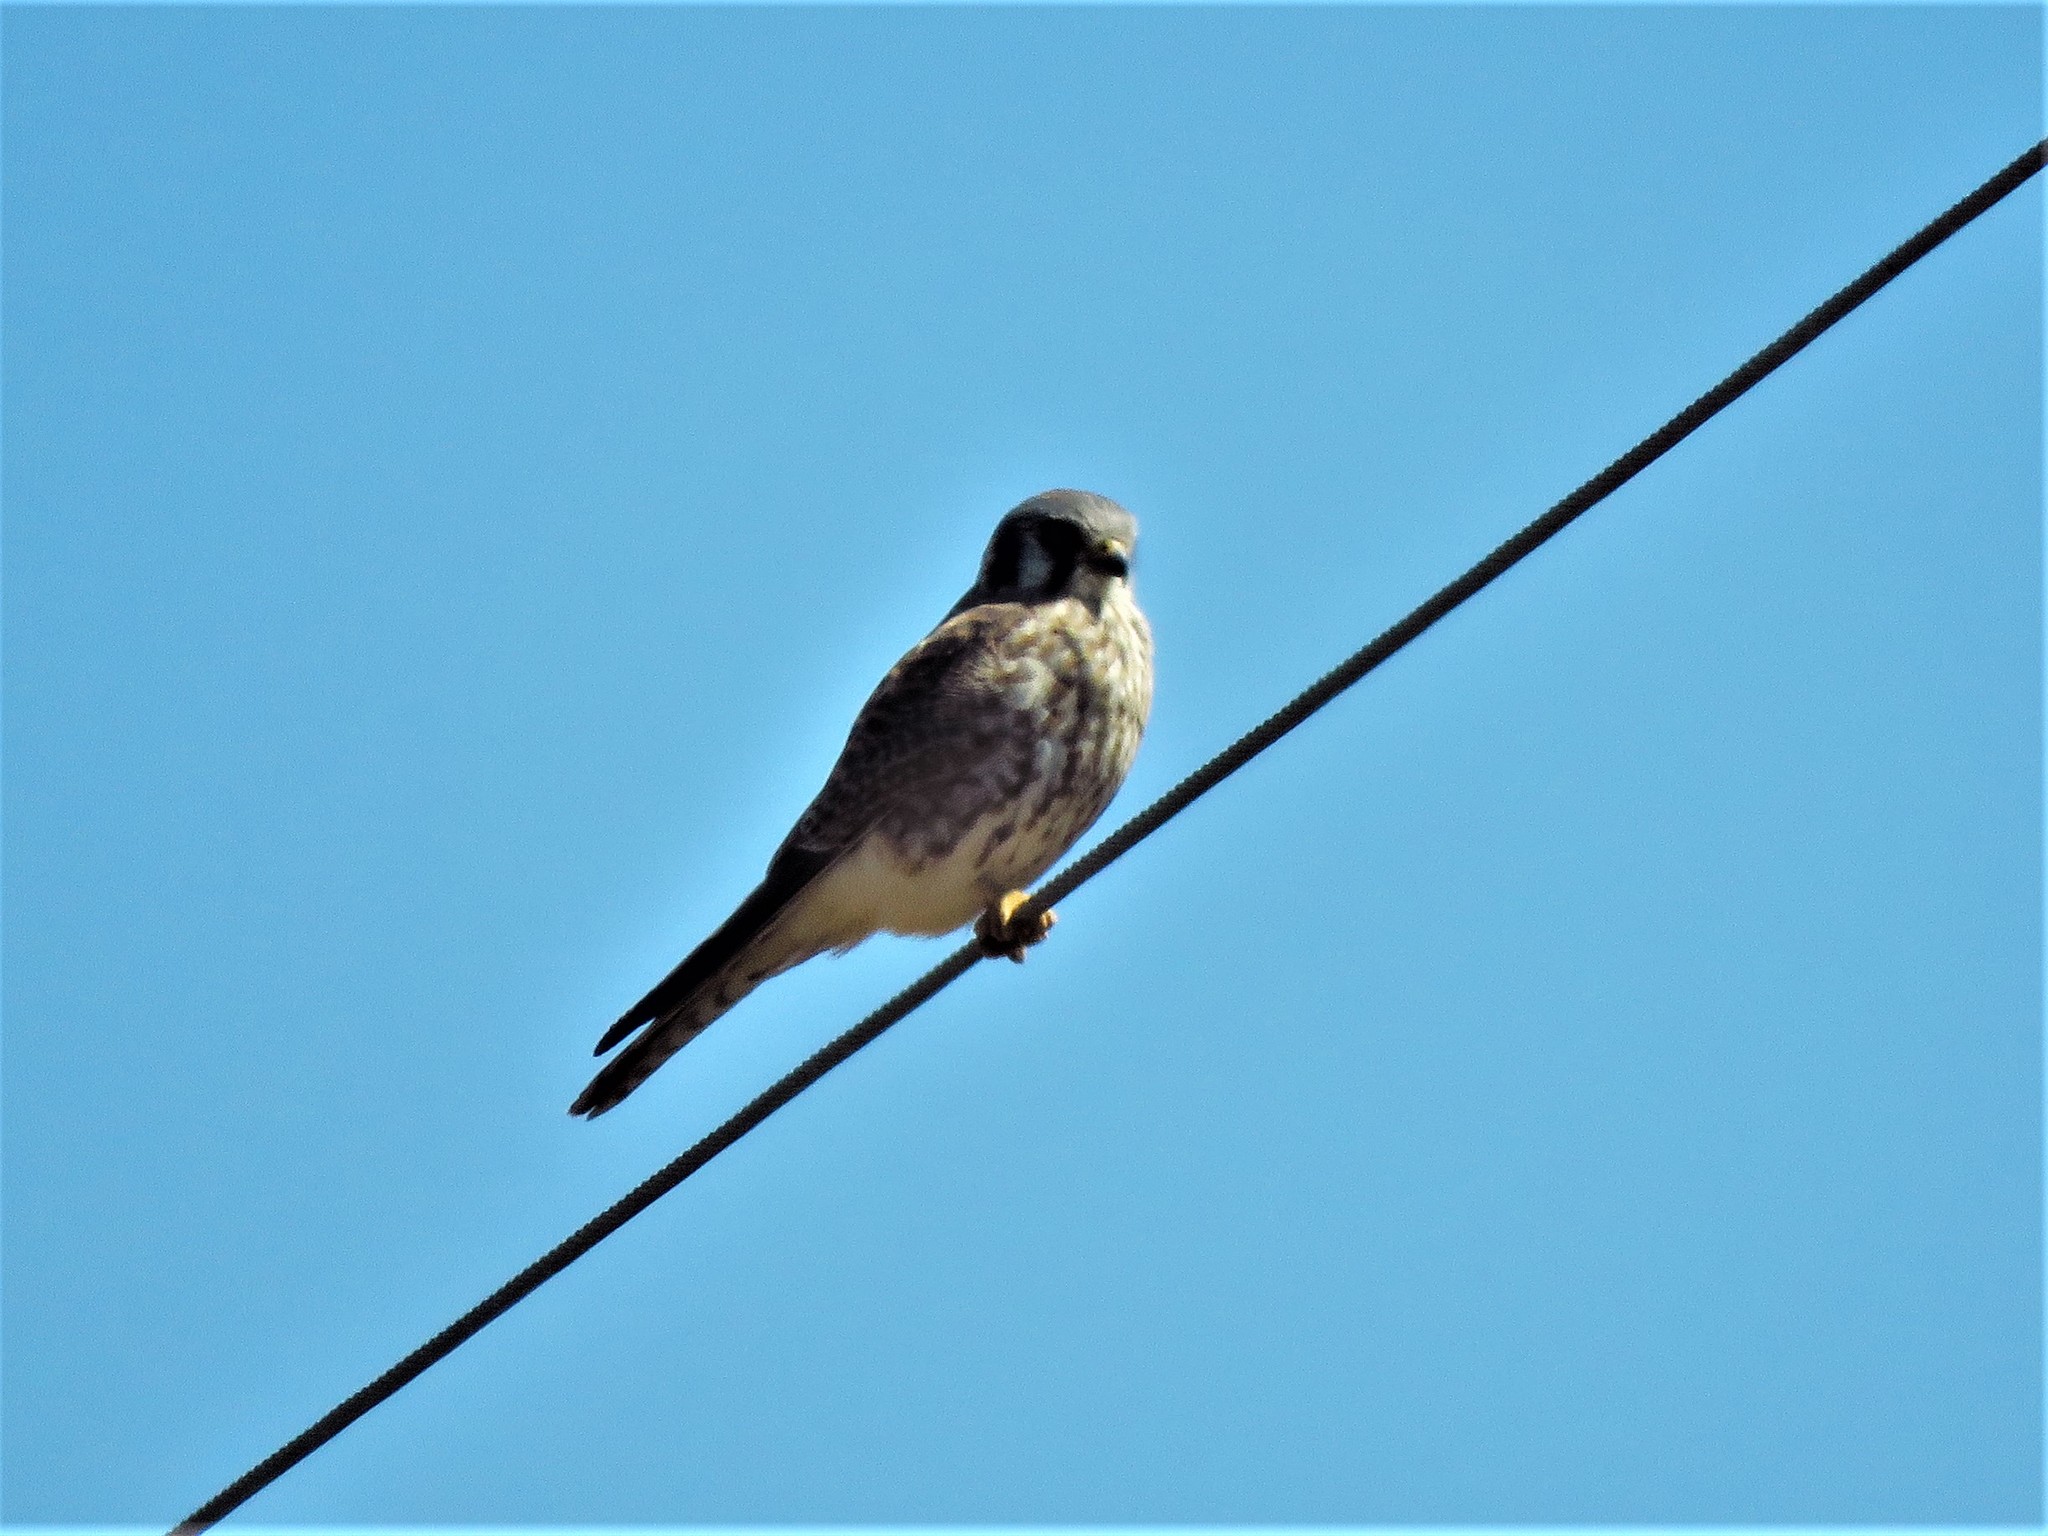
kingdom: Animalia
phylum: Chordata
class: Aves
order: Falconiformes
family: Falconidae
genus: Falco
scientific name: Falco sparverius
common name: American kestrel
